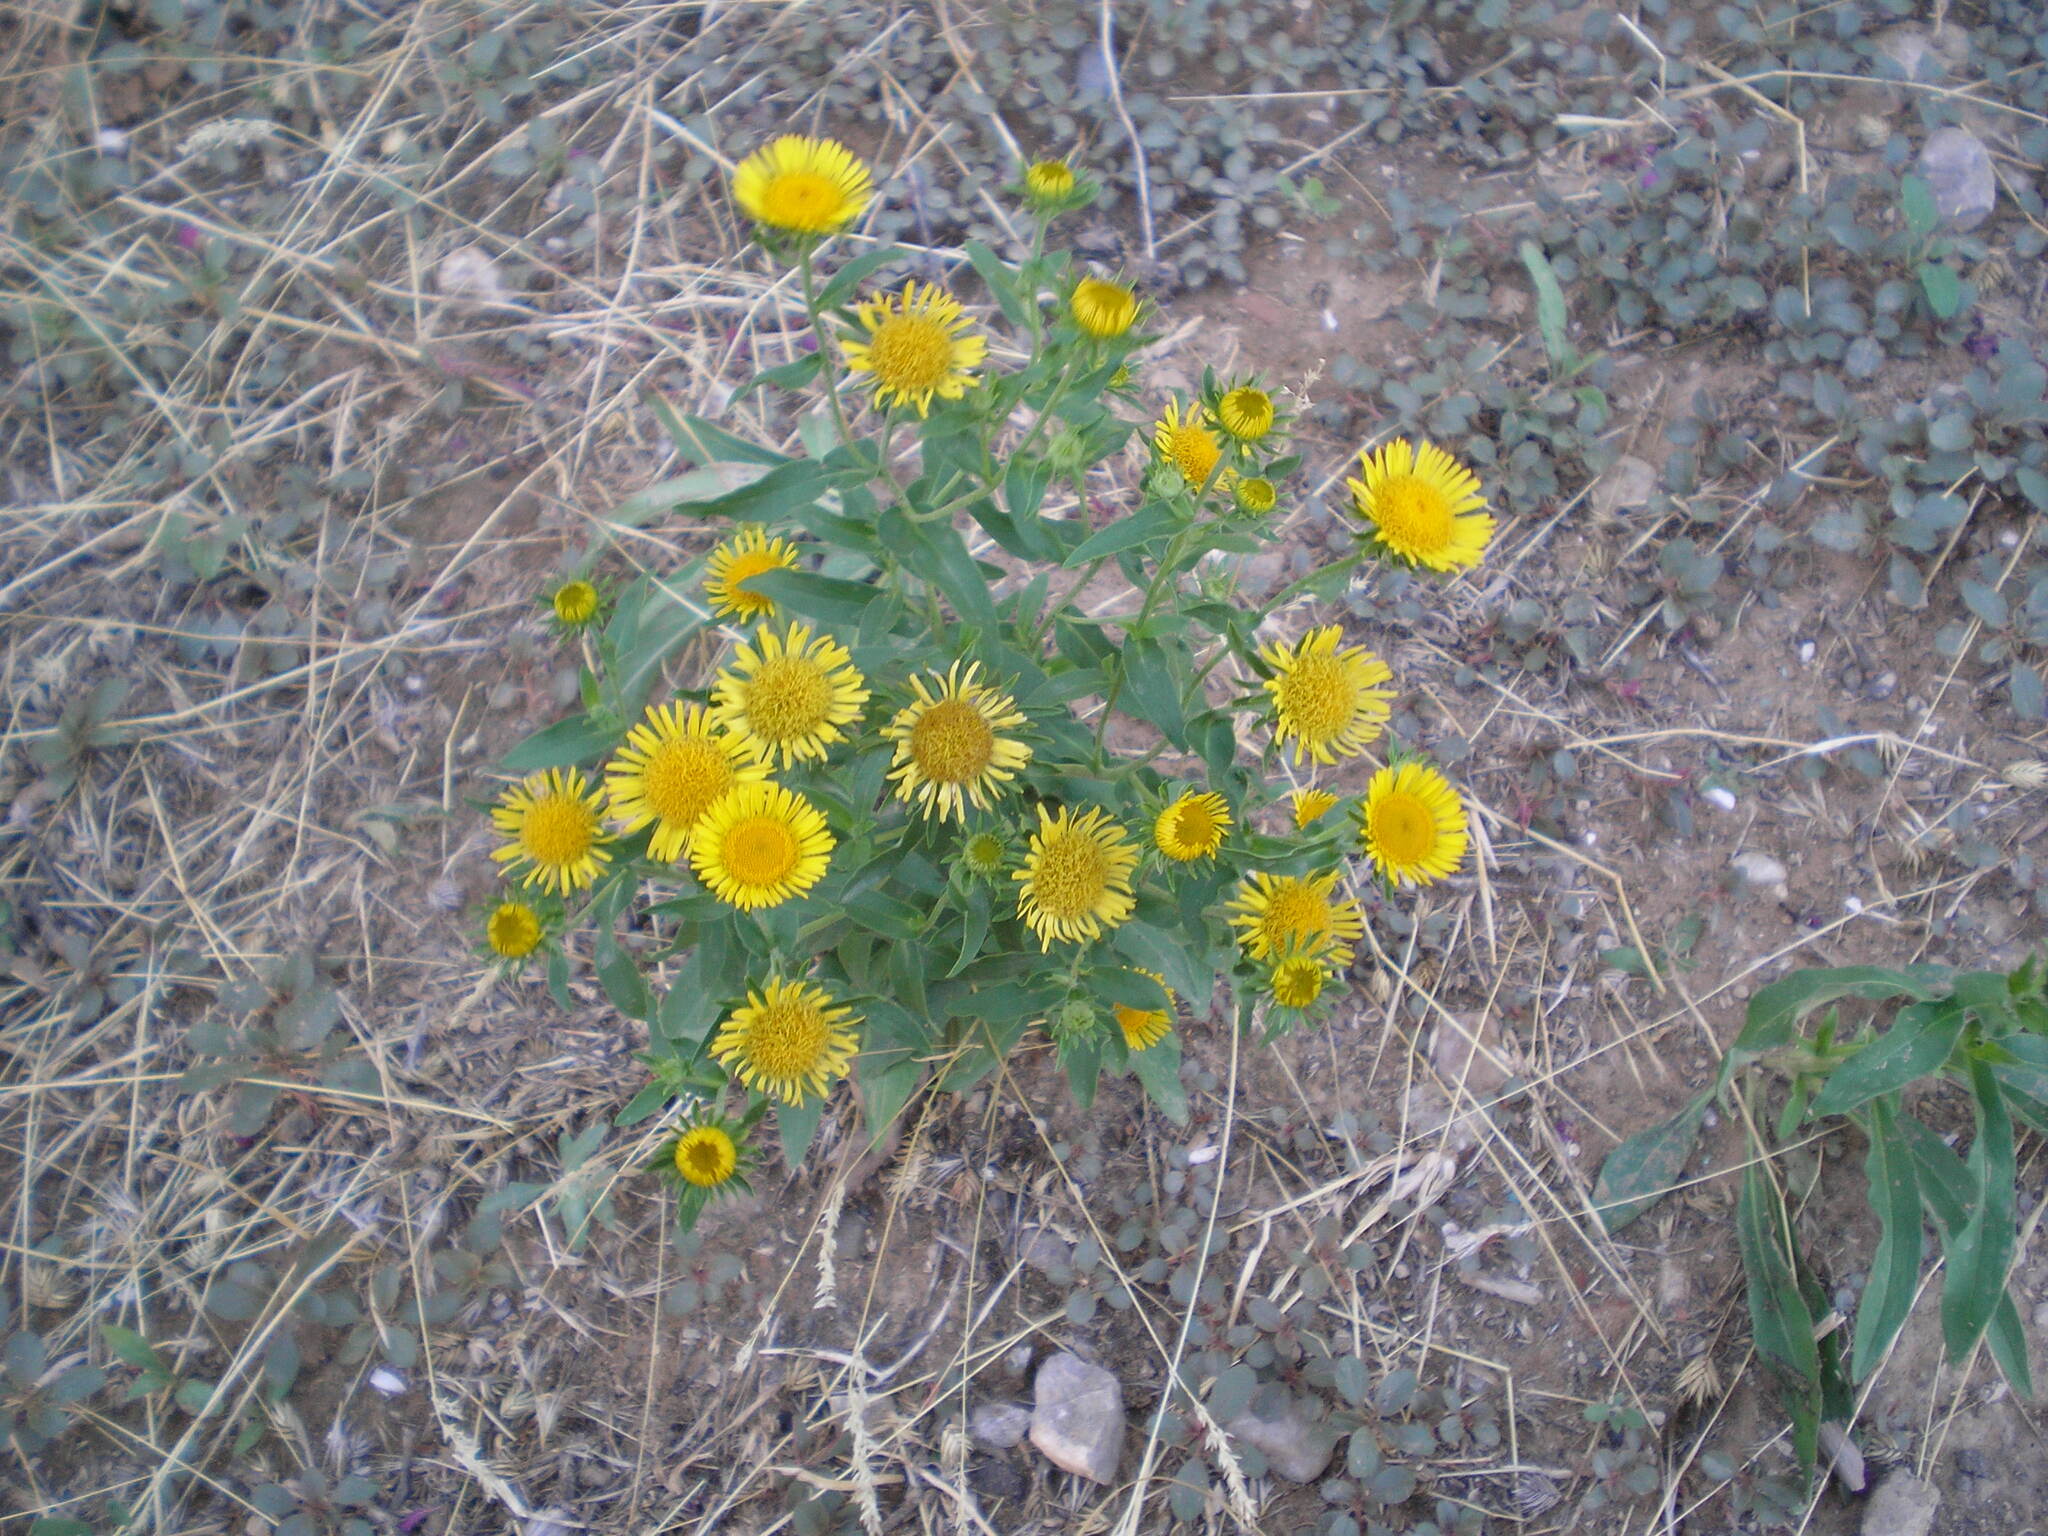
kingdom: Plantae
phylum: Tracheophyta
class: Magnoliopsida
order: Asterales
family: Asteraceae
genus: Pentanema
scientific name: Pentanema britannicum
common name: British elecampane
